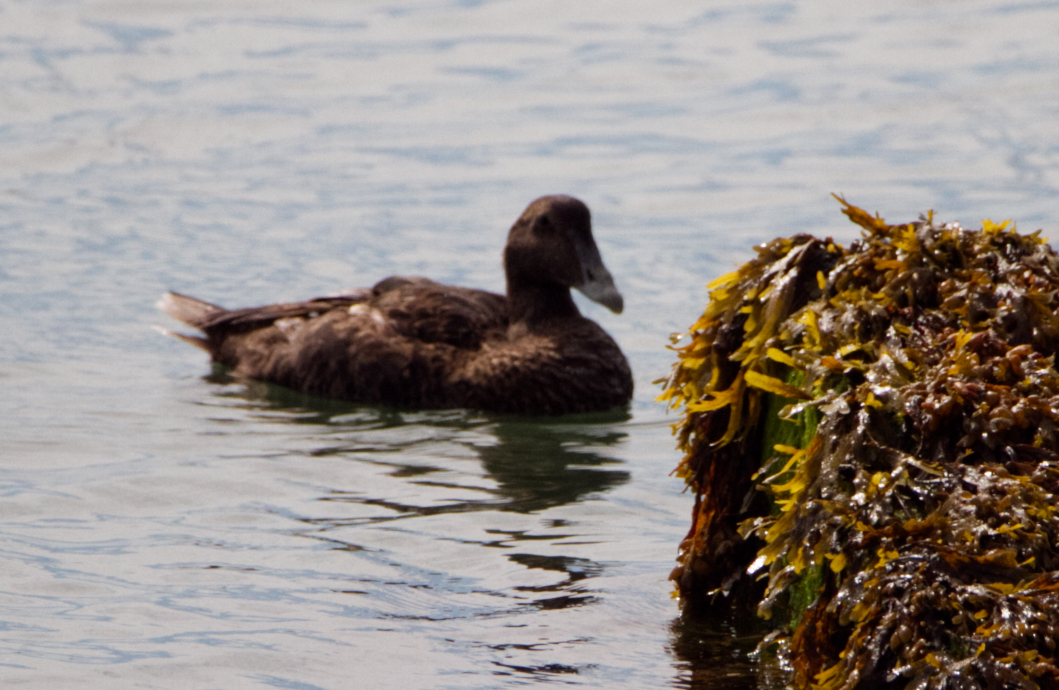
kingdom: Animalia
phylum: Chordata
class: Aves
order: Anseriformes
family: Anatidae
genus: Somateria
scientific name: Somateria mollissima
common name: Common eider
